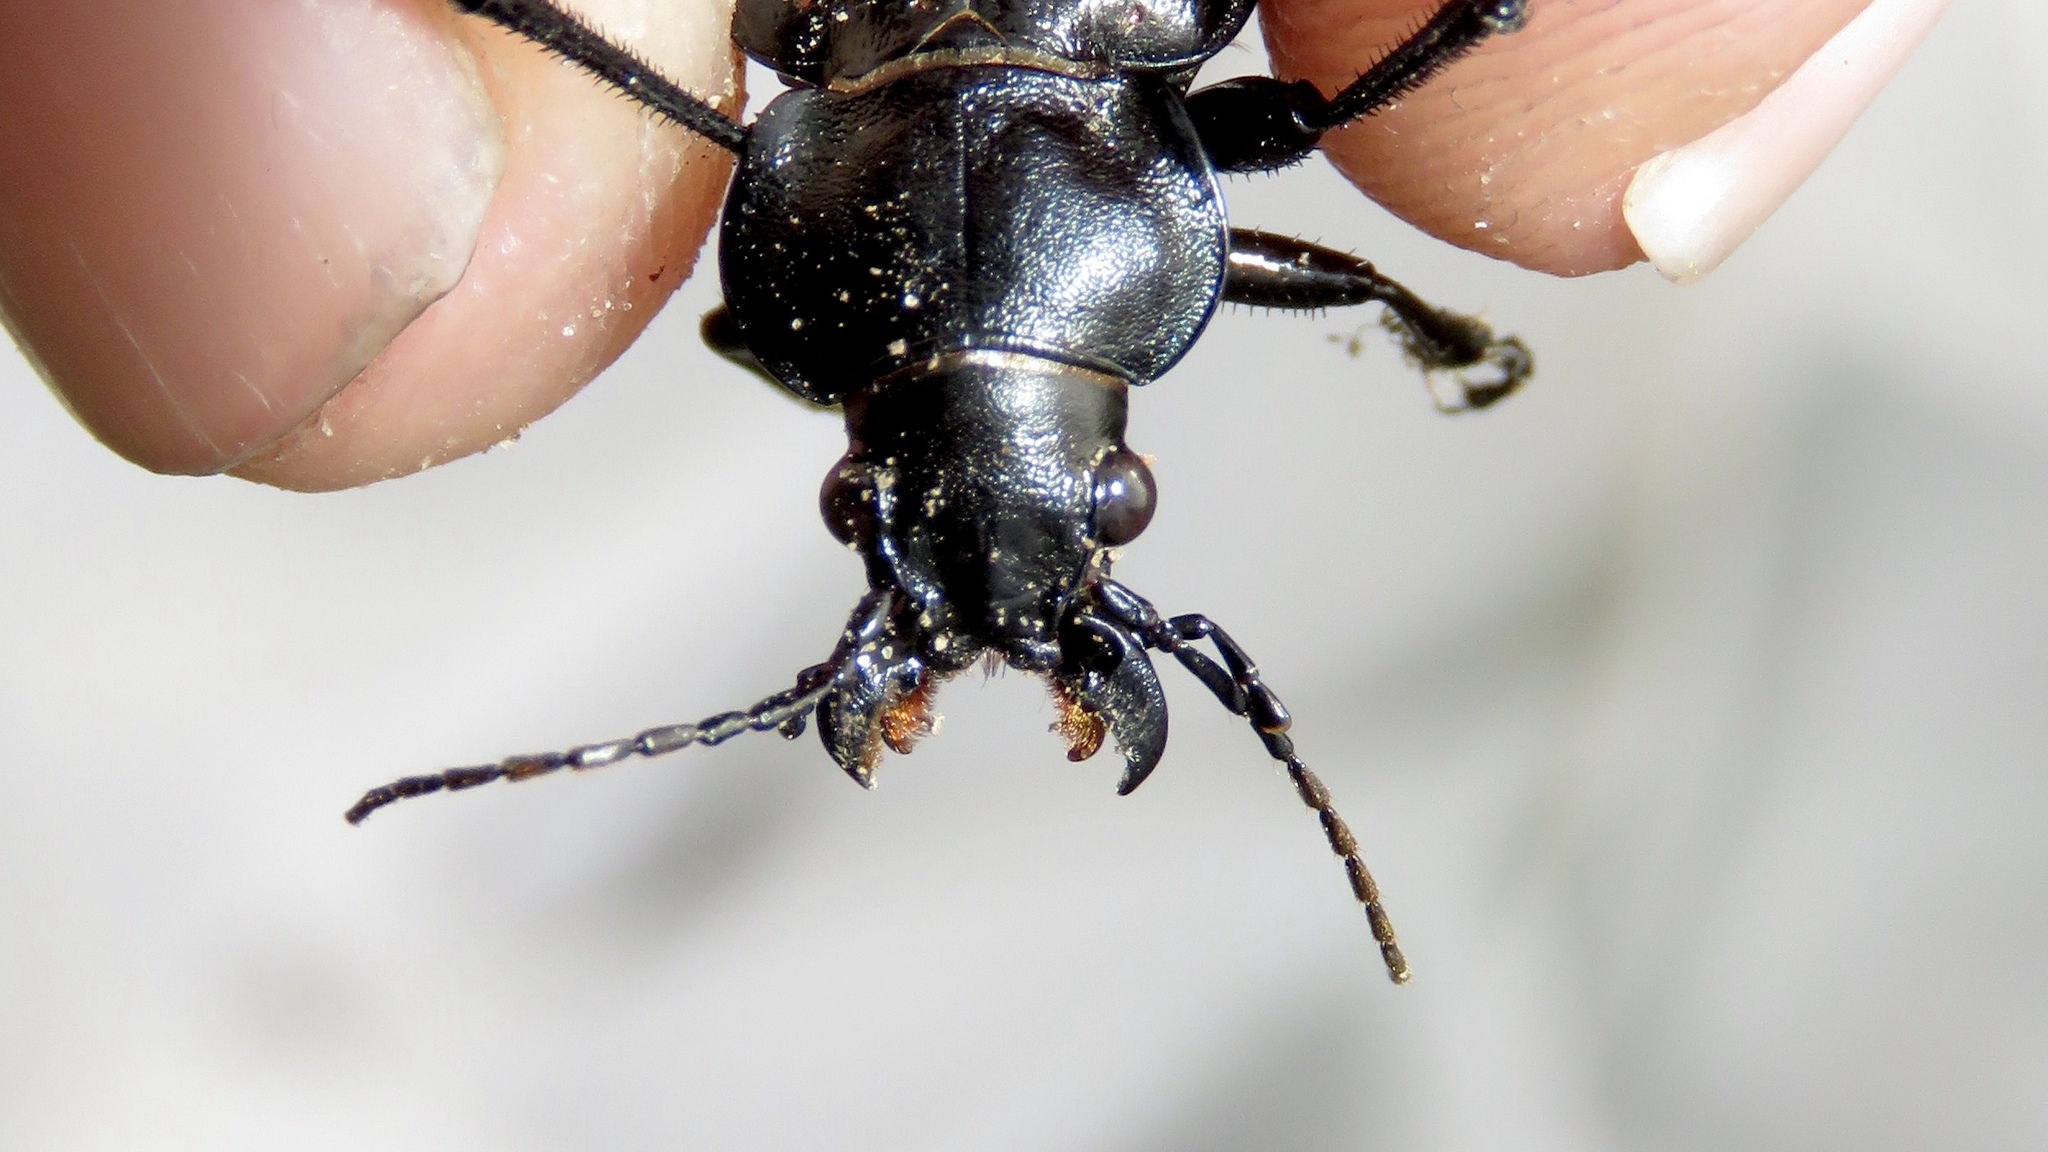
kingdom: Animalia
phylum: Arthropoda
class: Insecta
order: Coleoptera
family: Carabidae
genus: Calosoma
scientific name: Calosoma calidum
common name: Fiery hunter
